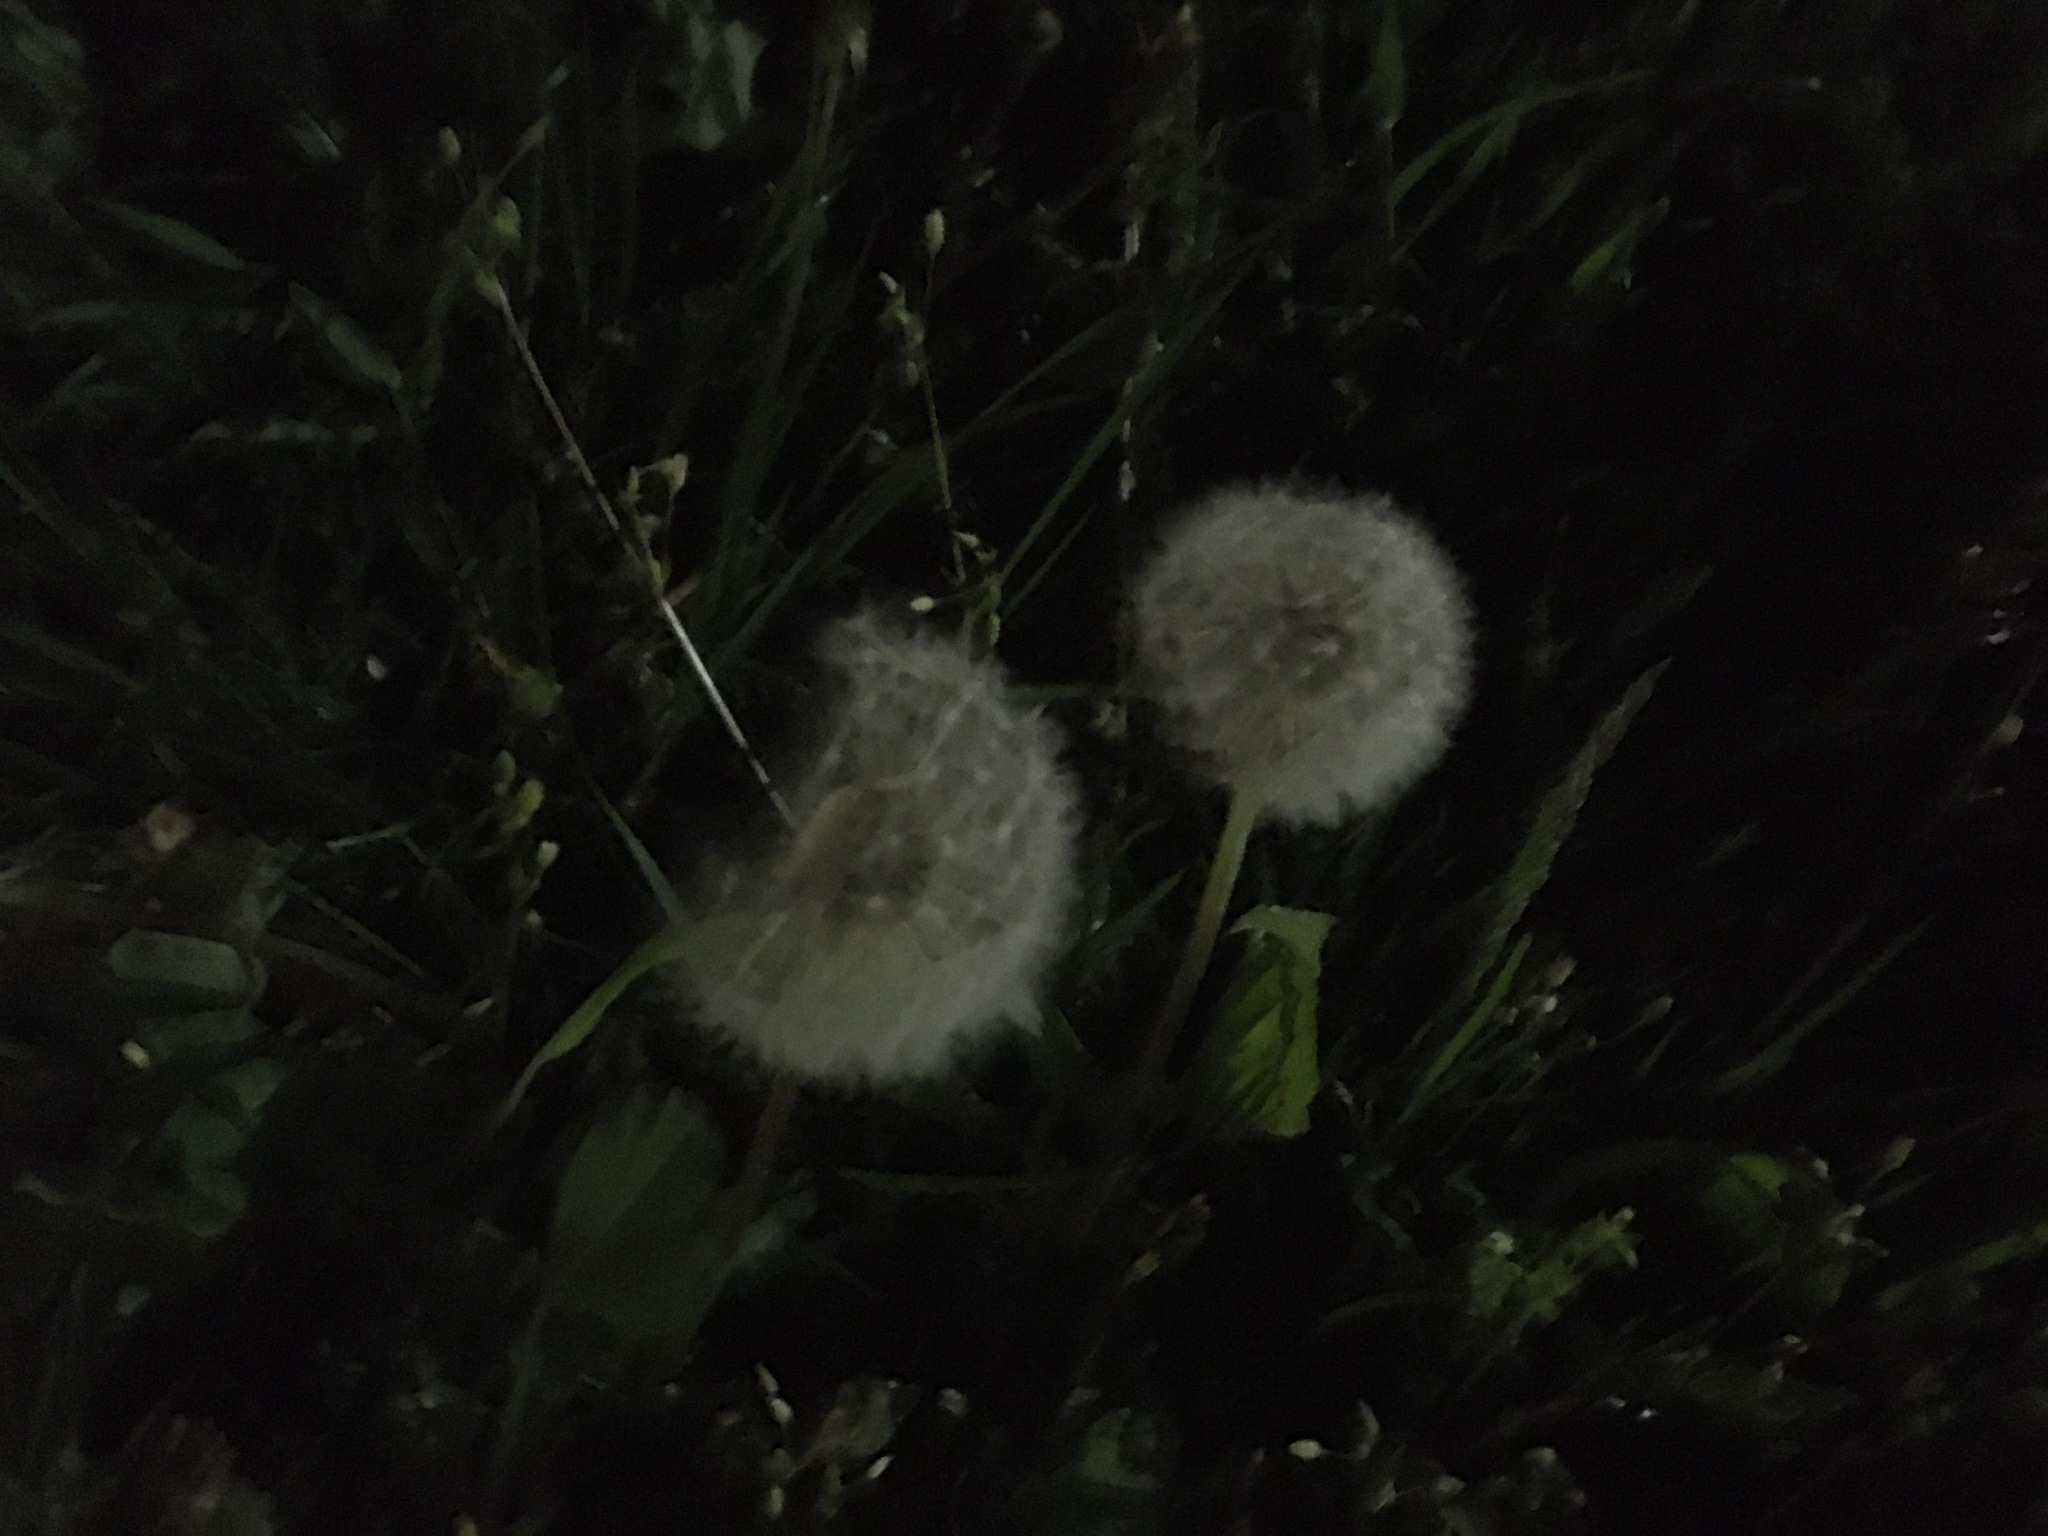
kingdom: Plantae
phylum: Tracheophyta
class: Magnoliopsida
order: Asterales
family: Asteraceae
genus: Taraxacum
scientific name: Taraxacum officinale
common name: Common dandelion
